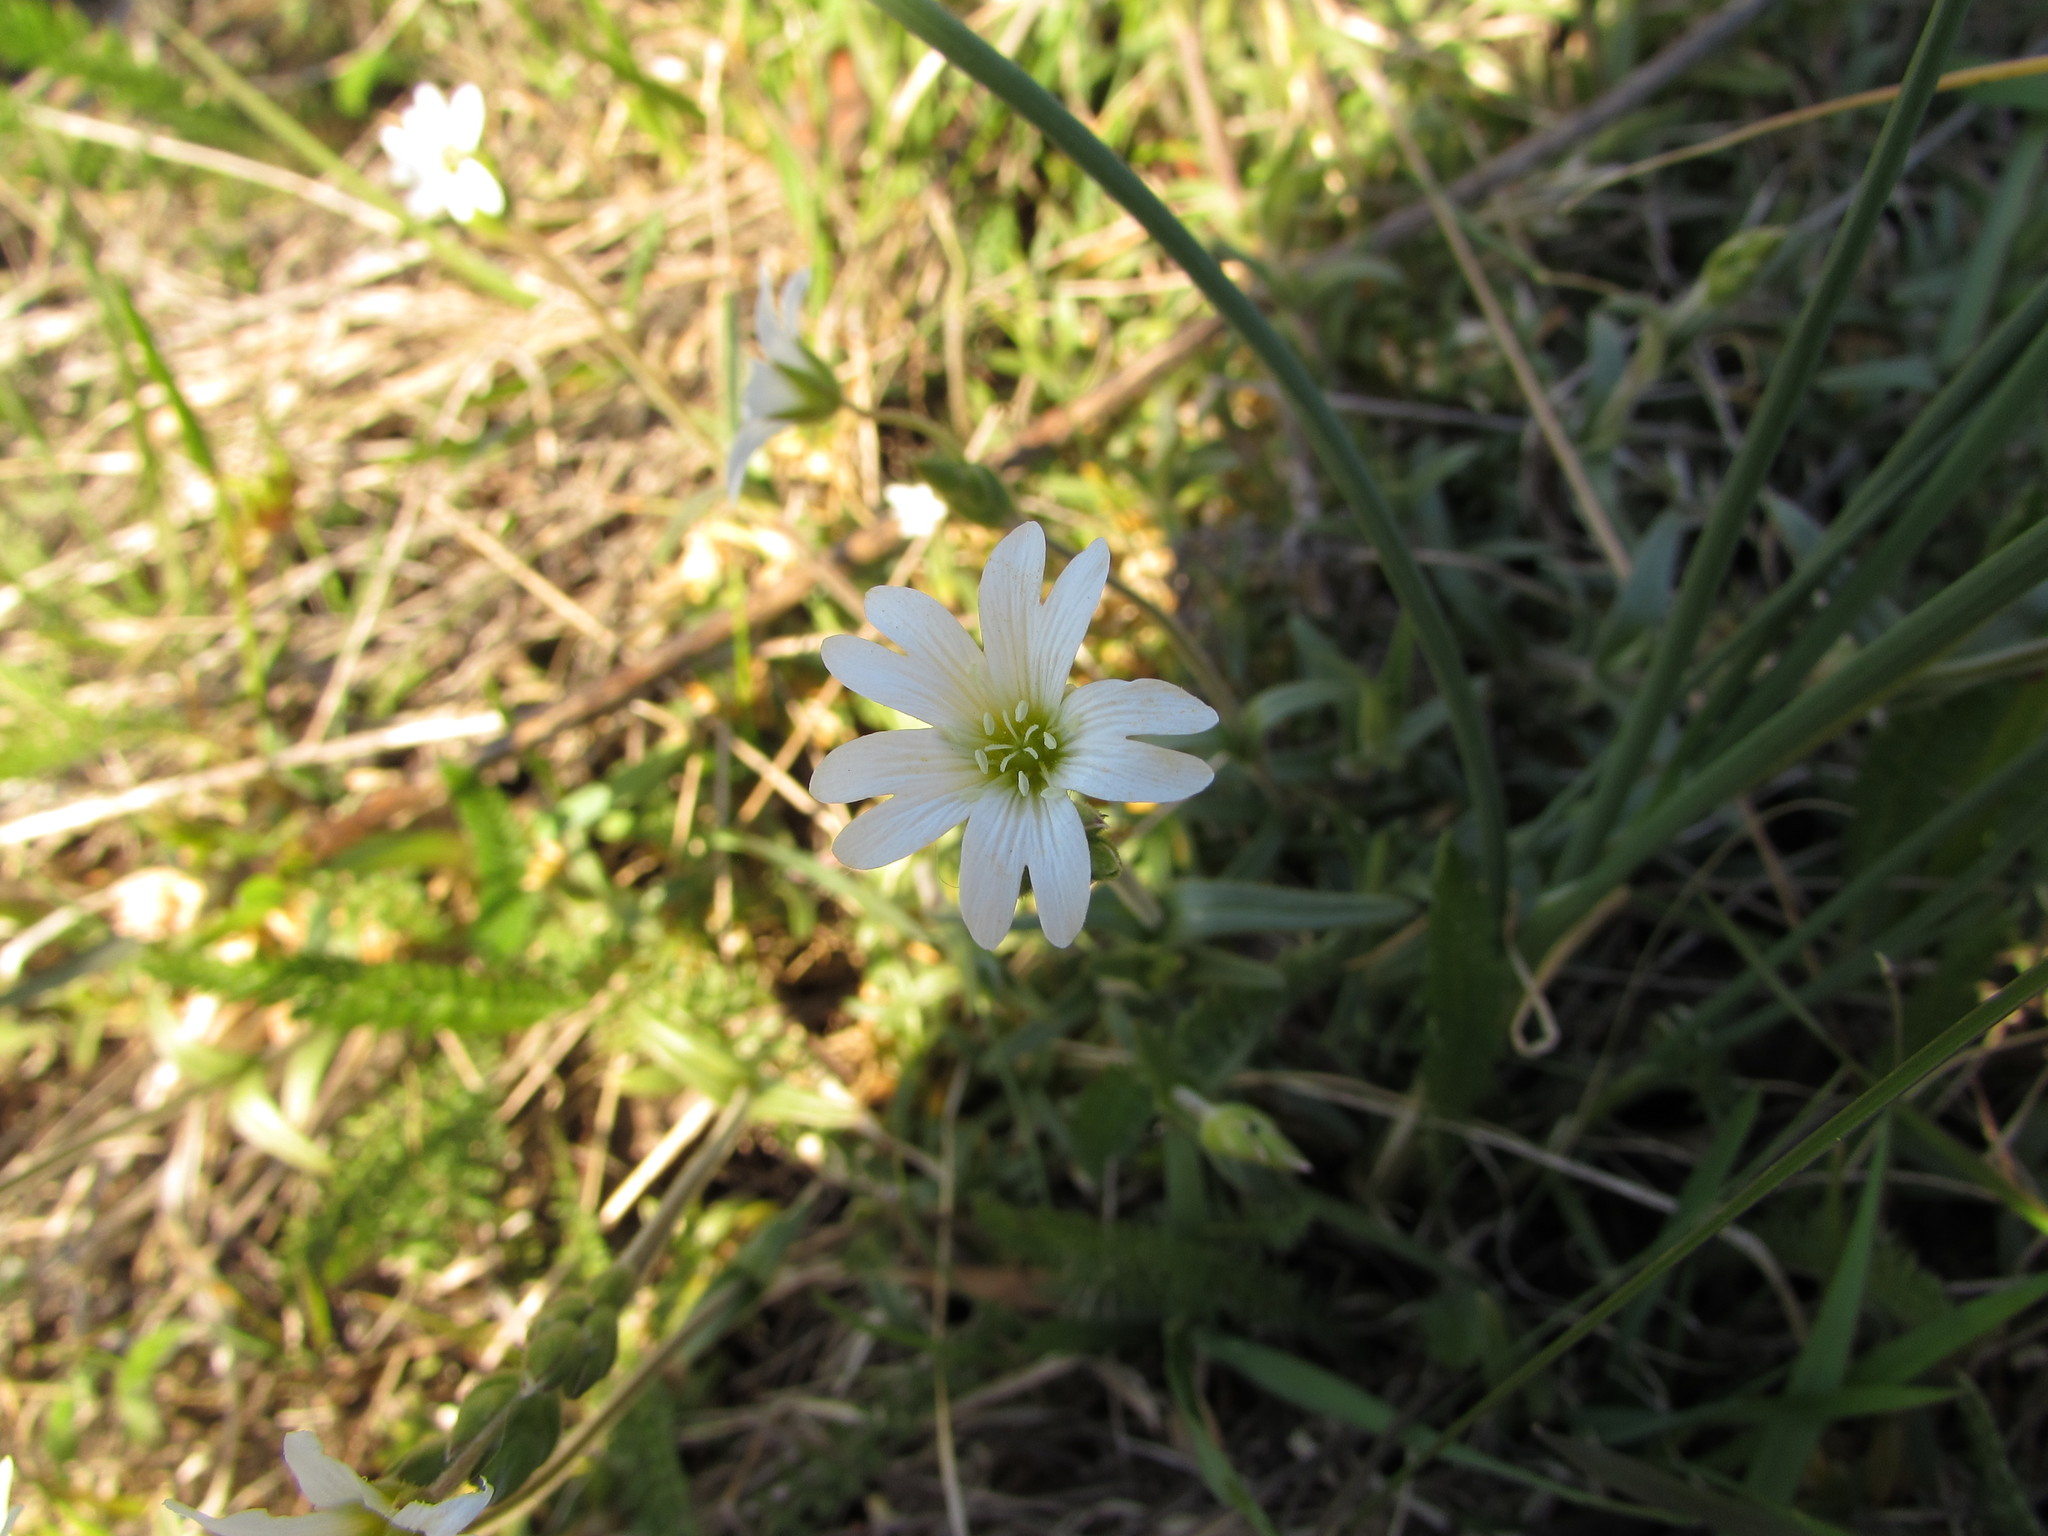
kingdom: Plantae
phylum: Tracheophyta
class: Magnoliopsida
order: Caryophyllales
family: Caryophyllaceae
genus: Cerastium
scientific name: Cerastium velutinum
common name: Barren chickweed
